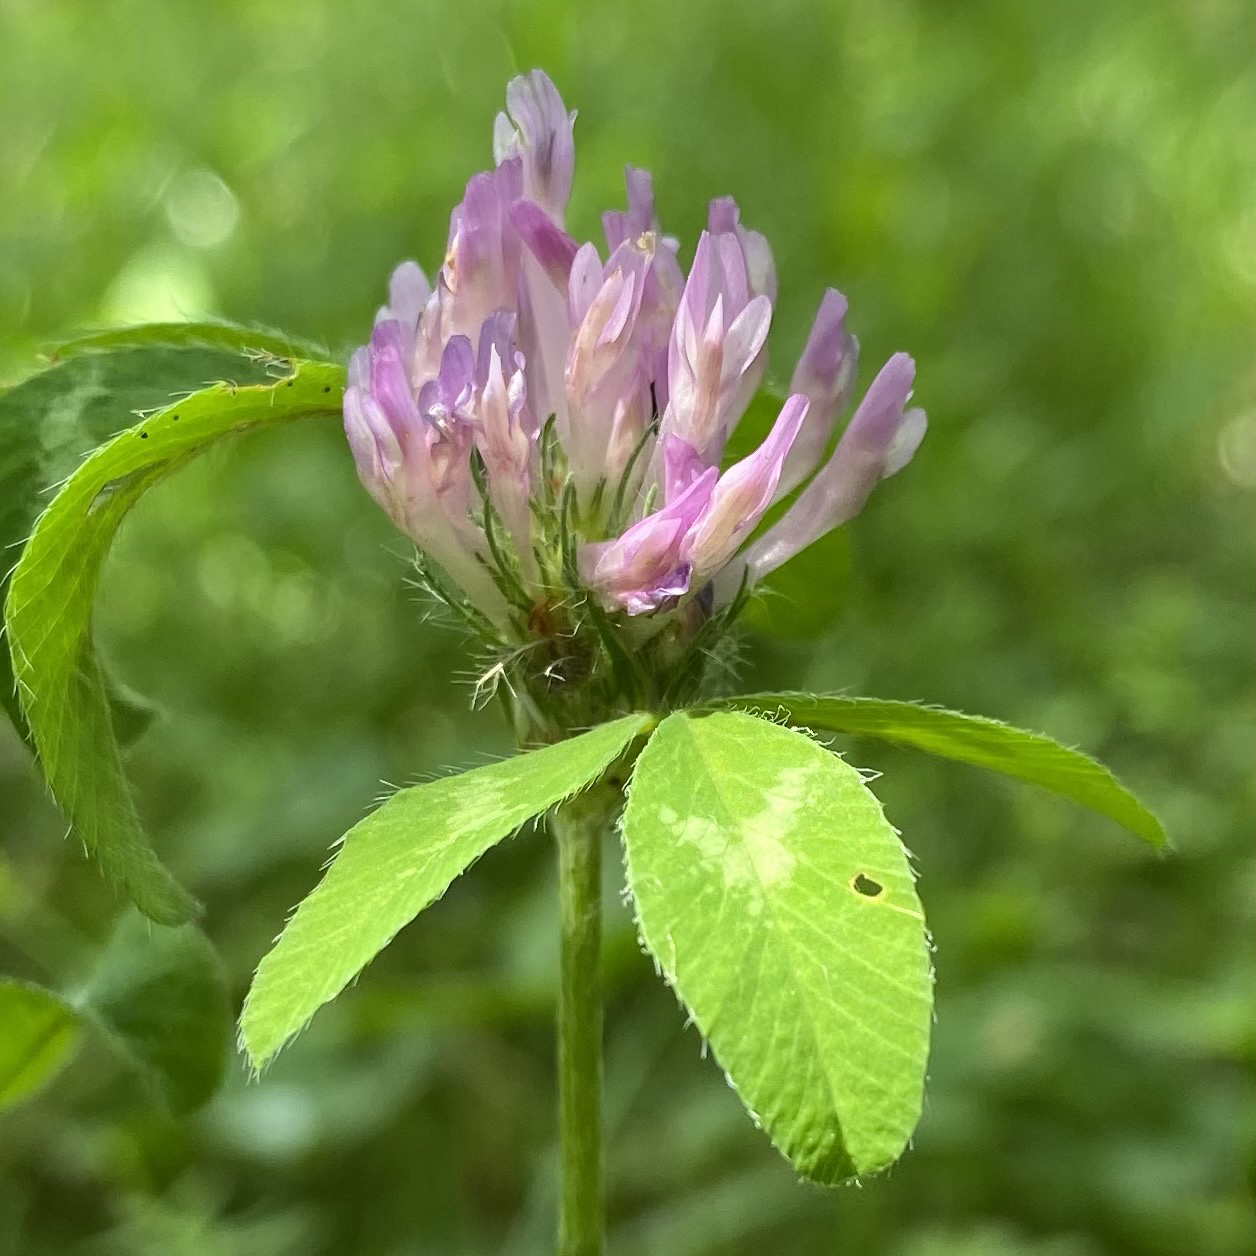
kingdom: Plantae
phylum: Tracheophyta
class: Magnoliopsida
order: Fabales
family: Fabaceae
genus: Trifolium
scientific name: Trifolium pratense
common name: Red clover
